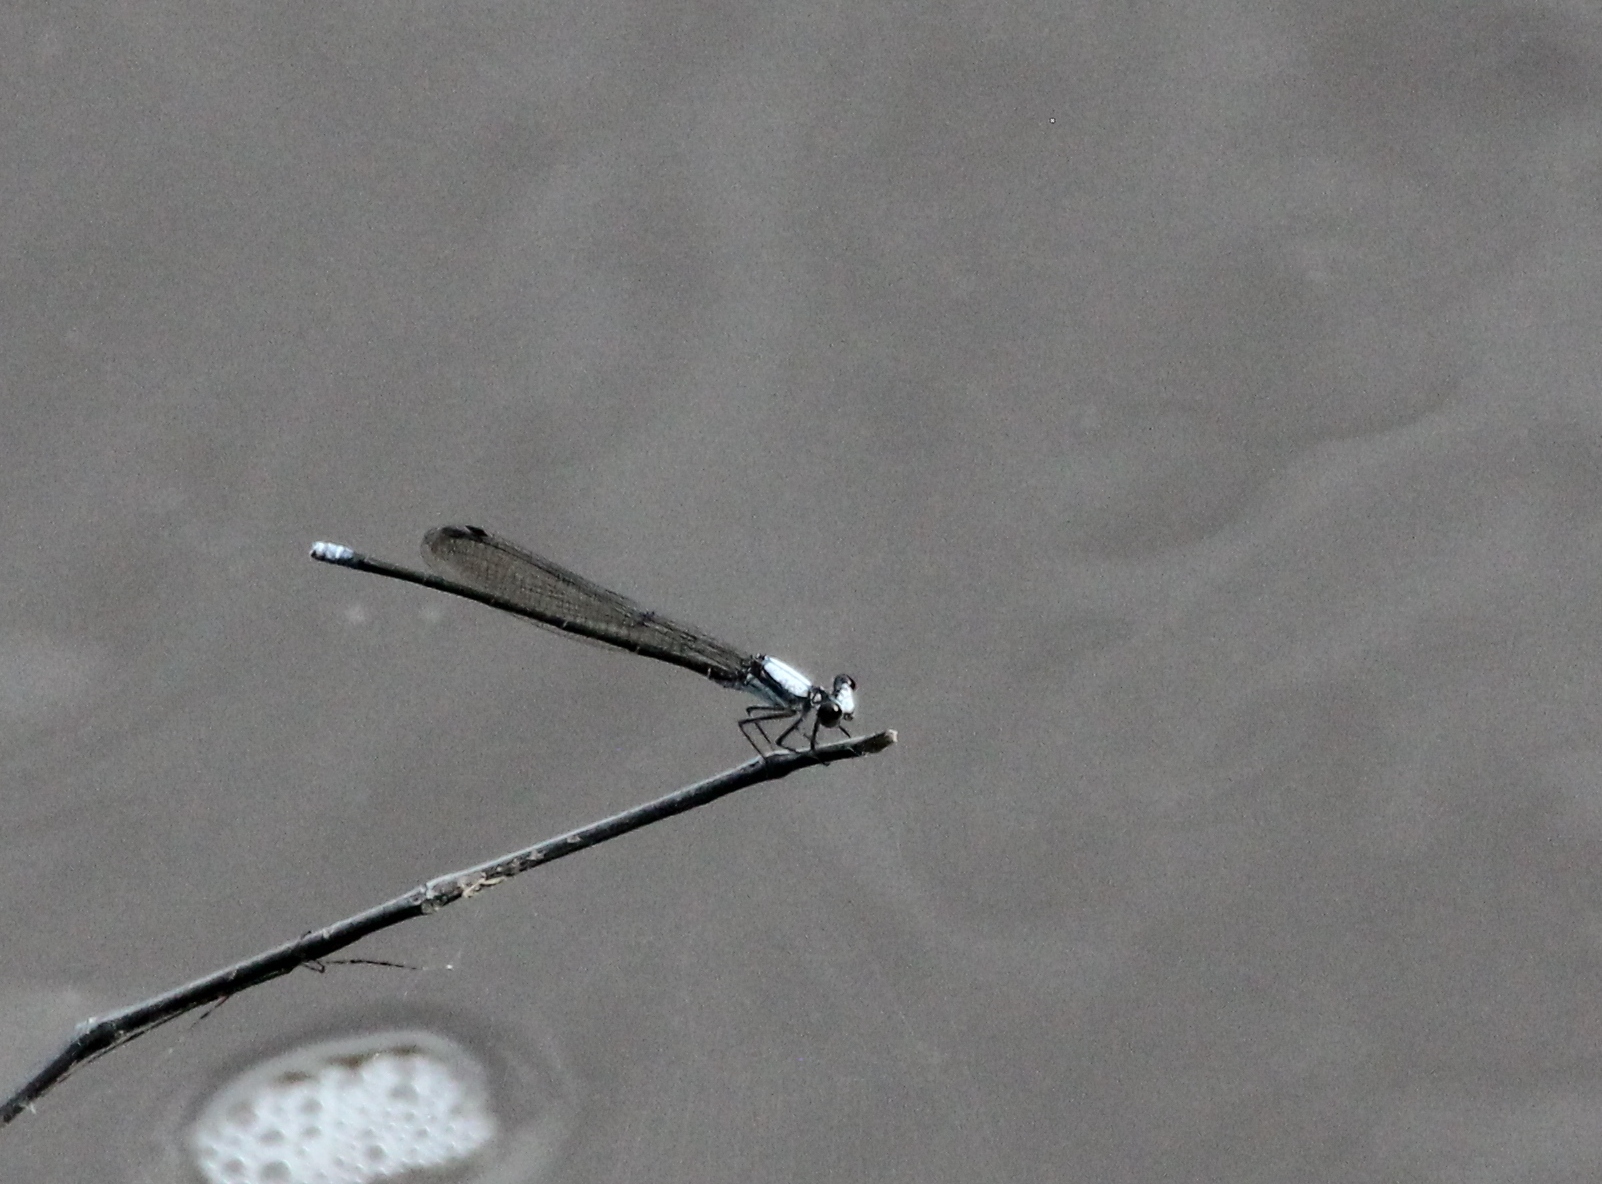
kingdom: Animalia
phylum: Arthropoda
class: Insecta
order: Odonata
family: Coenagrionidae
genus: Argia
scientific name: Argia moesta
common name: Powdered dancer
